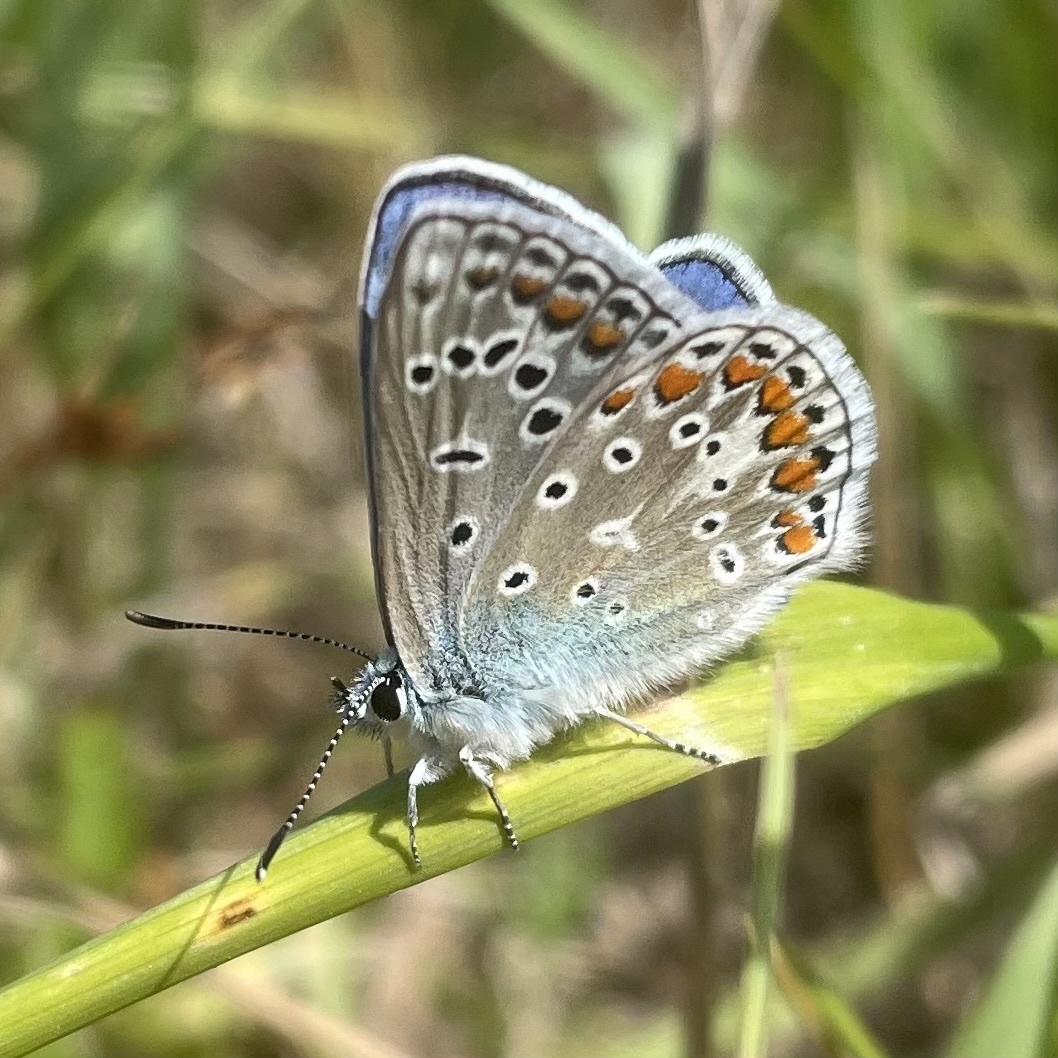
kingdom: Animalia
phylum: Arthropoda
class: Insecta
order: Lepidoptera
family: Lycaenidae
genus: Polyommatus
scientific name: Polyommatus icarus
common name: Common blue
